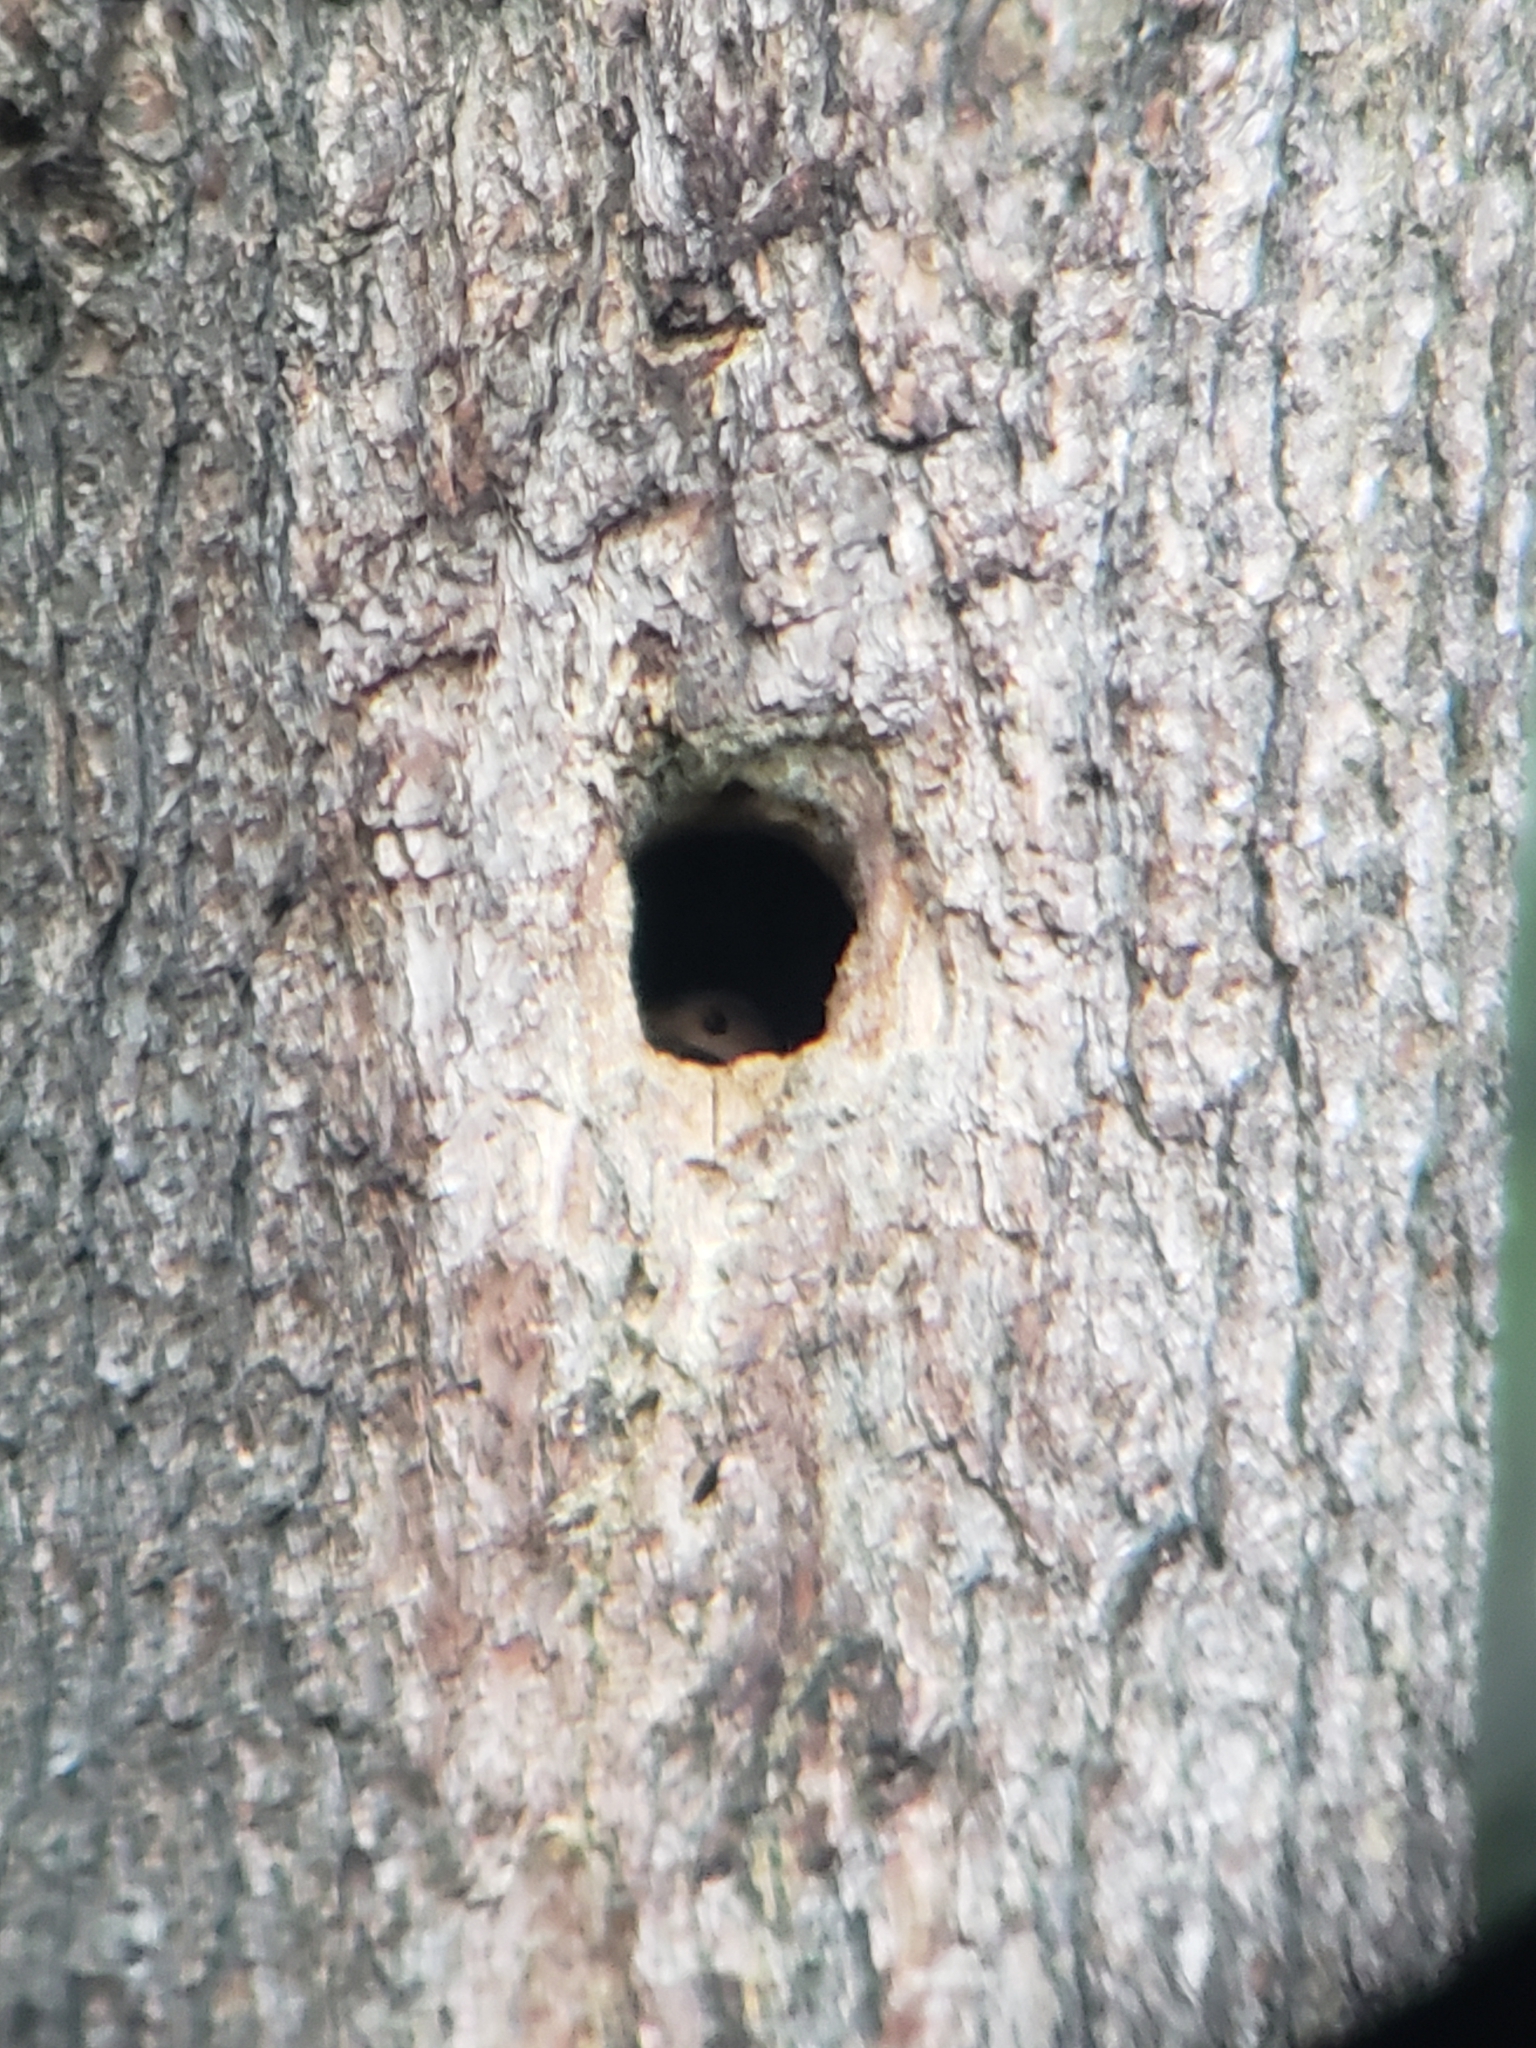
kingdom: Animalia
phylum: Chordata
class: Aves
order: Piciformes
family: Picidae
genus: Colaptes
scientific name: Colaptes auratus
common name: Northern flicker
